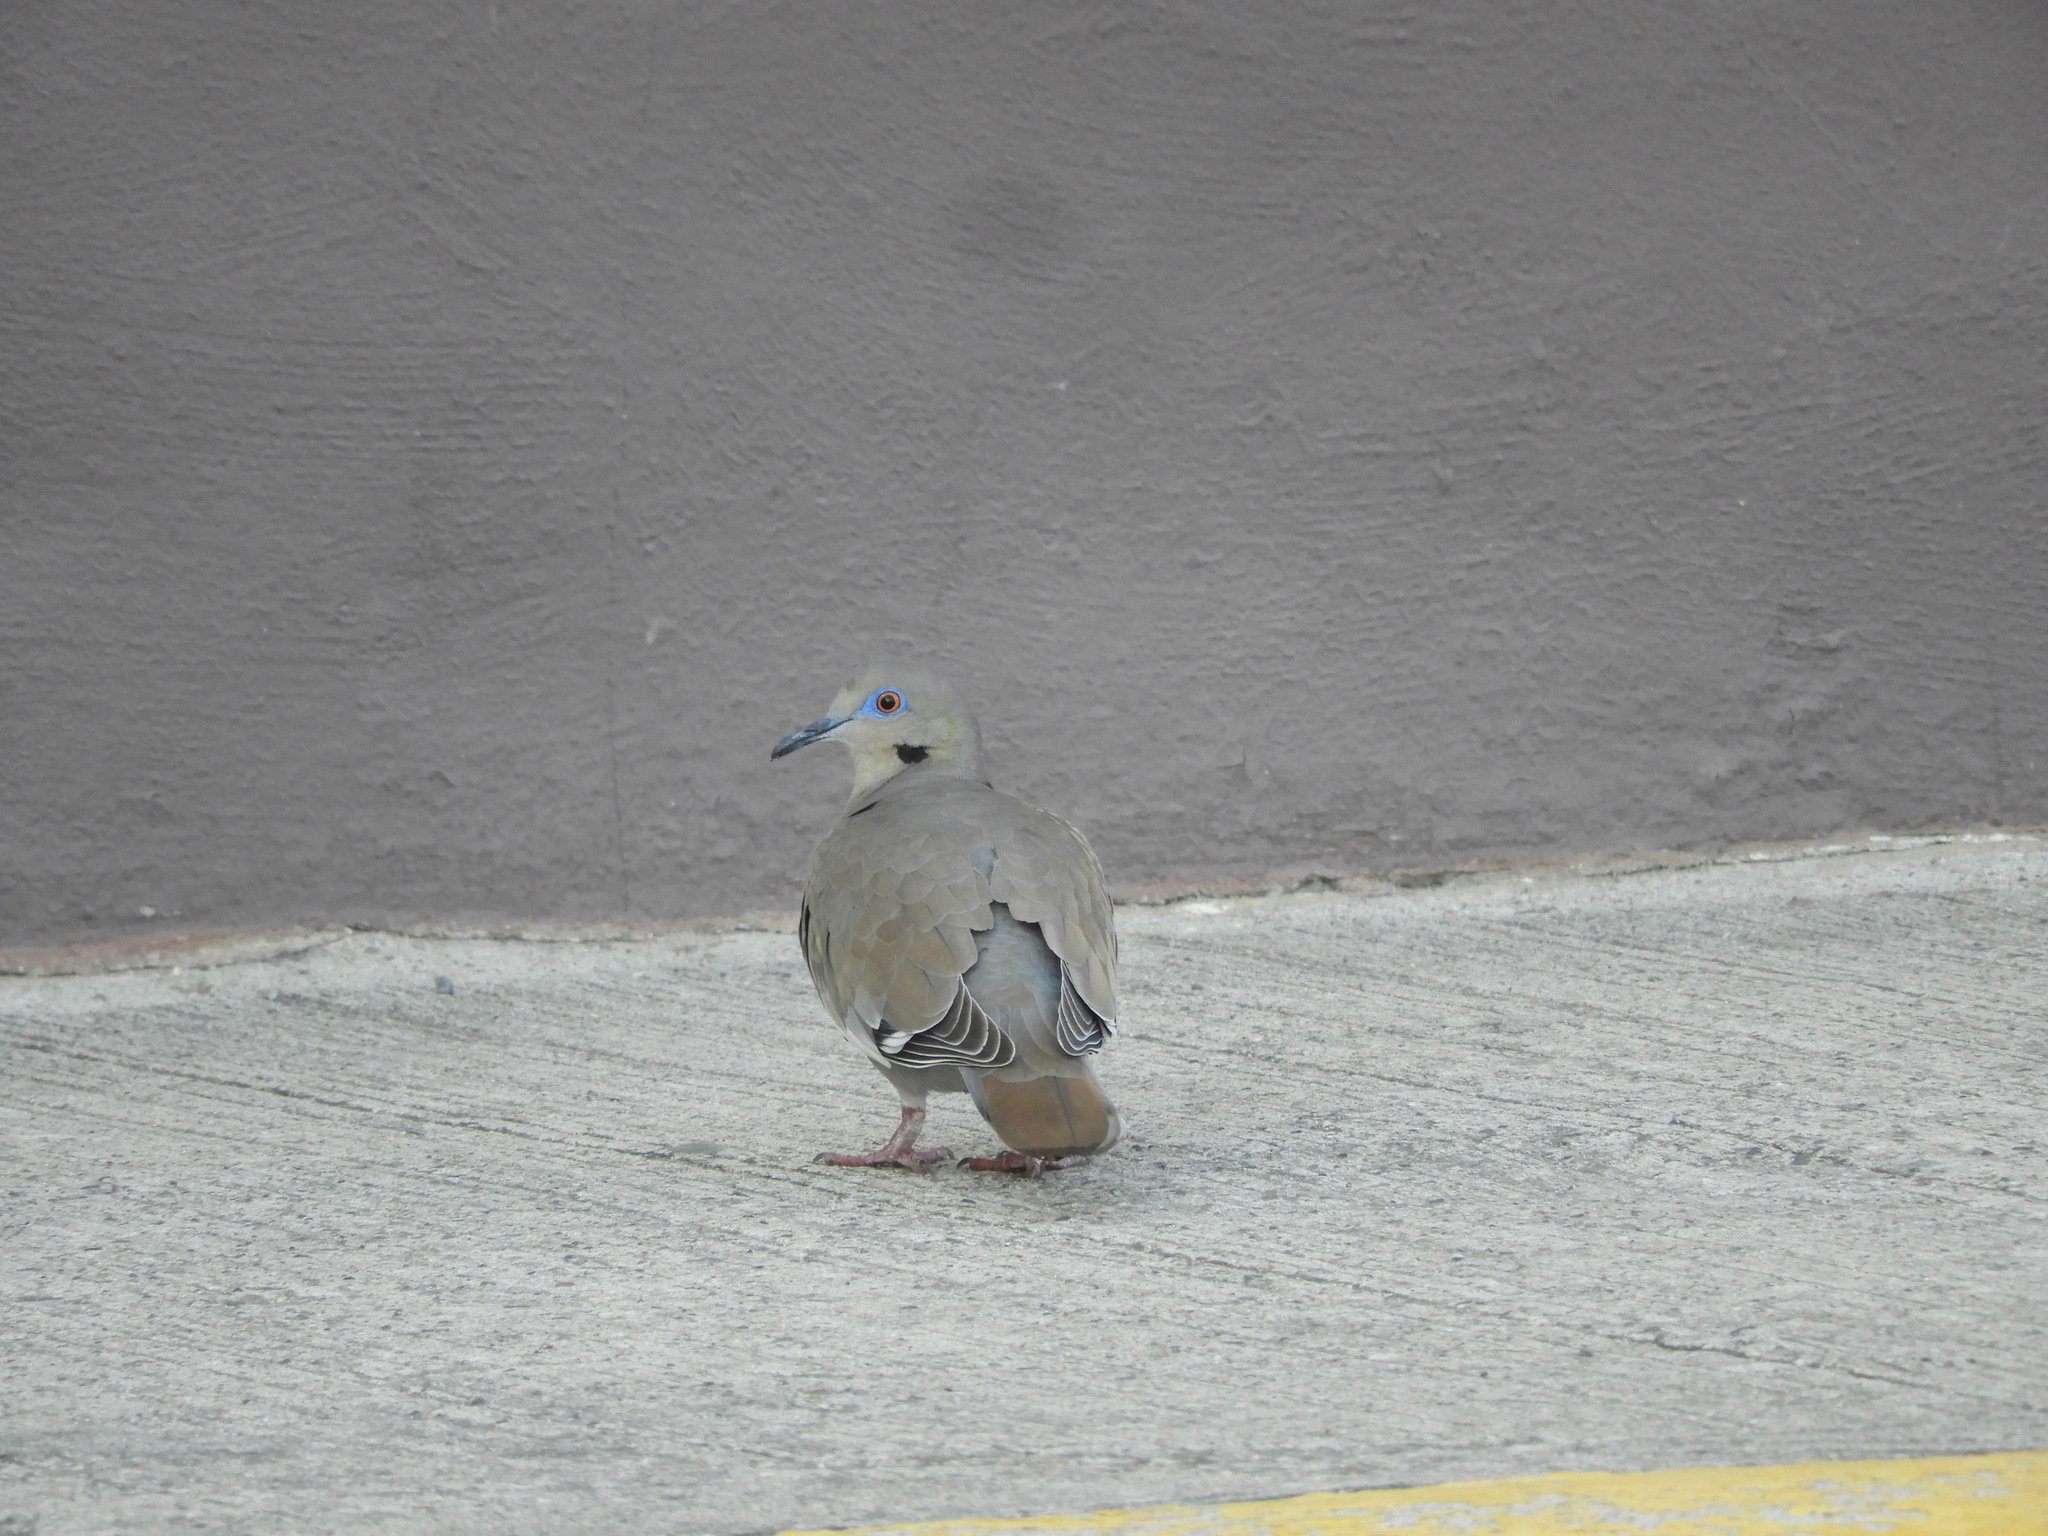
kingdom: Animalia
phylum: Chordata
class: Aves
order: Columbiformes
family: Columbidae
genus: Zenaida
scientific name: Zenaida asiatica
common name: White-winged dove
